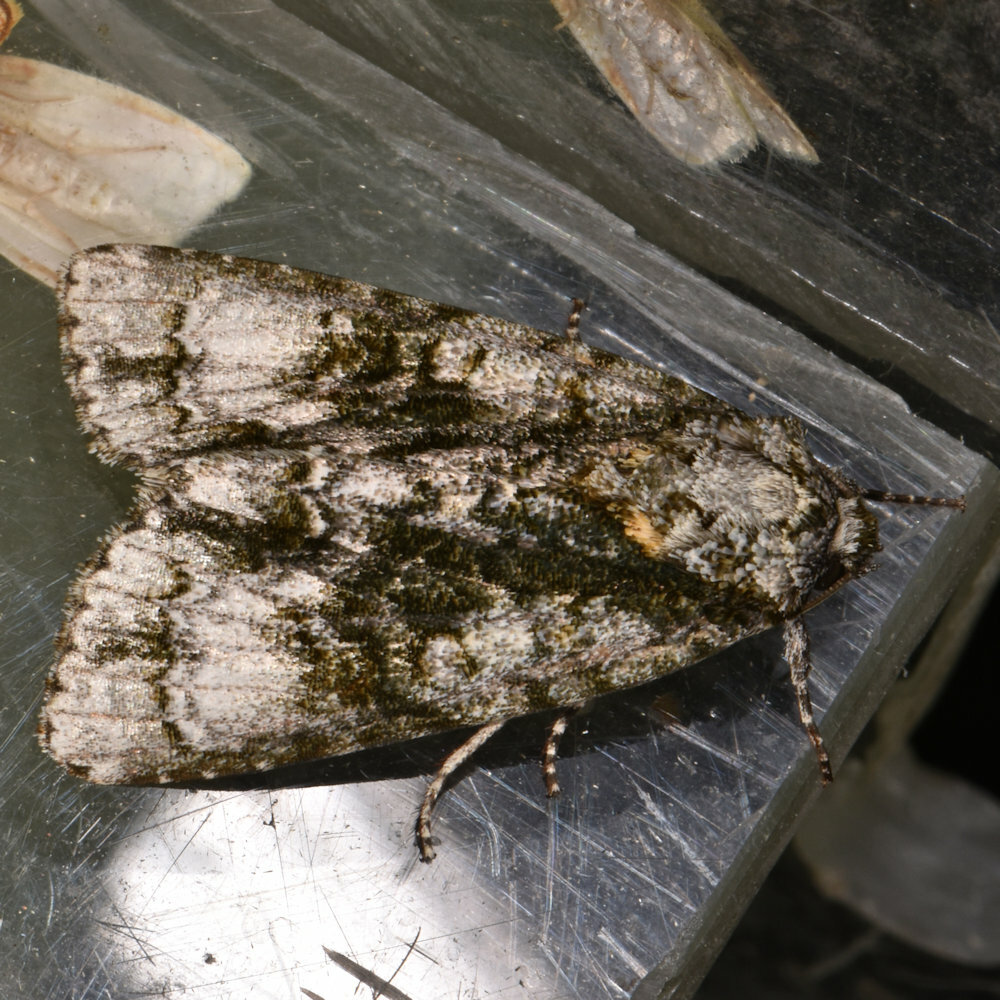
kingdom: Animalia
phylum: Arthropoda
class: Insecta
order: Lepidoptera
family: Noctuidae
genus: Acronicta
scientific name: Acronicta superans
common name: Splendid dagger
